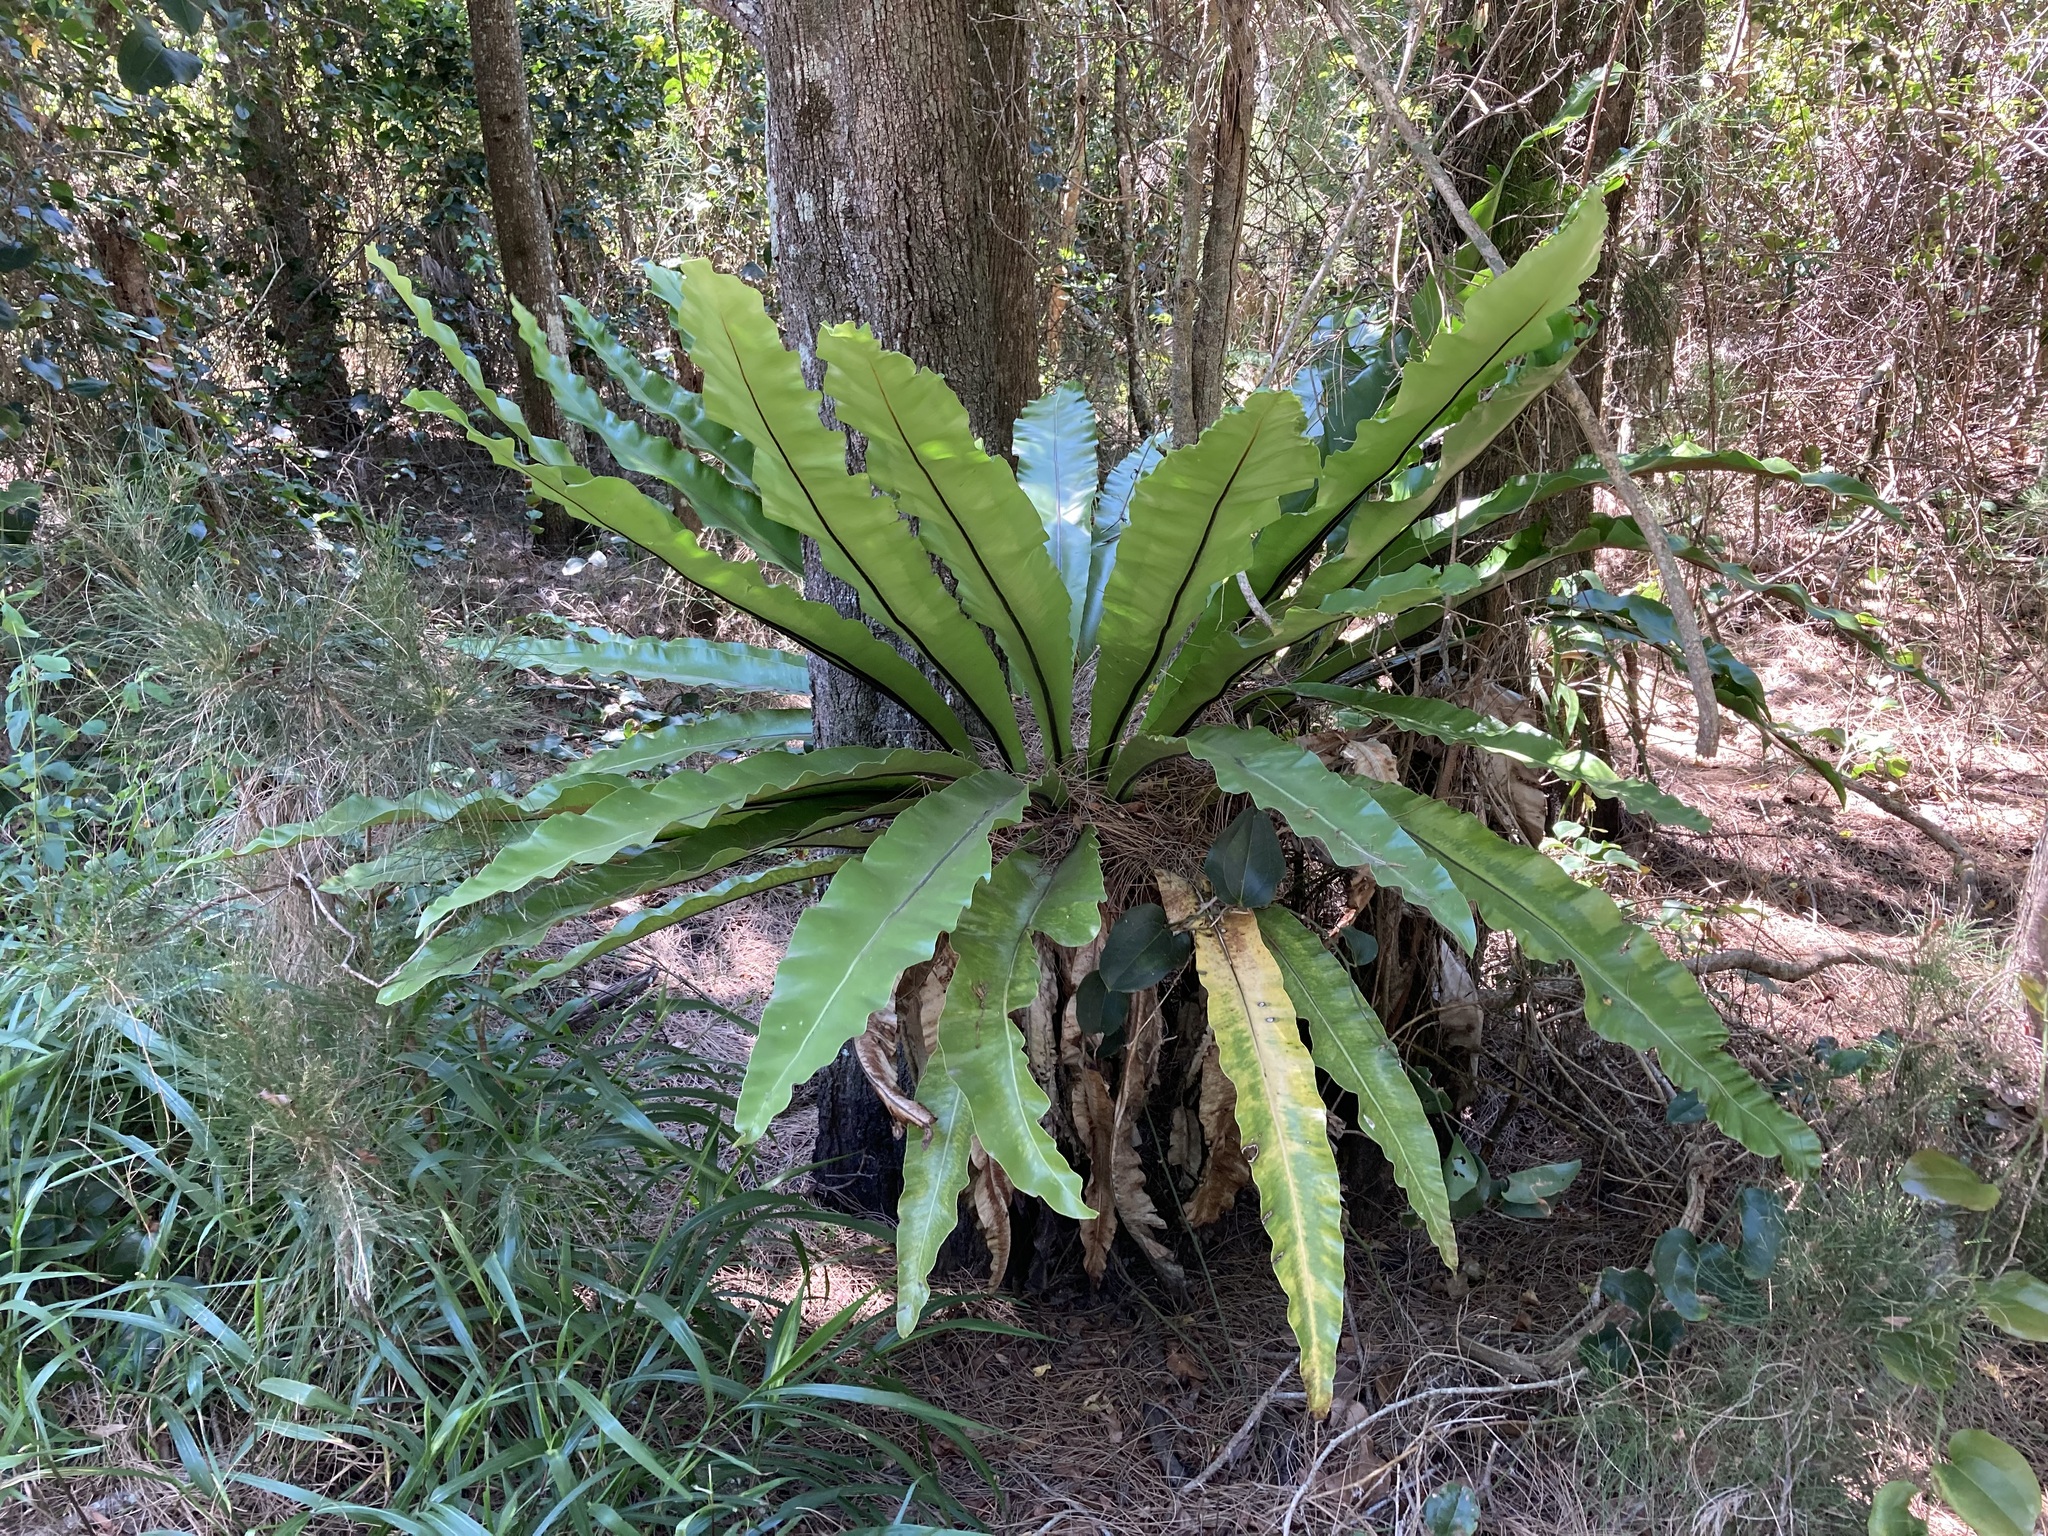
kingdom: Plantae
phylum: Tracheophyta
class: Polypodiopsida
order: Polypodiales
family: Aspleniaceae
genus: Asplenium
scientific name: Asplenium australasicum
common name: Bird's-nest fern
